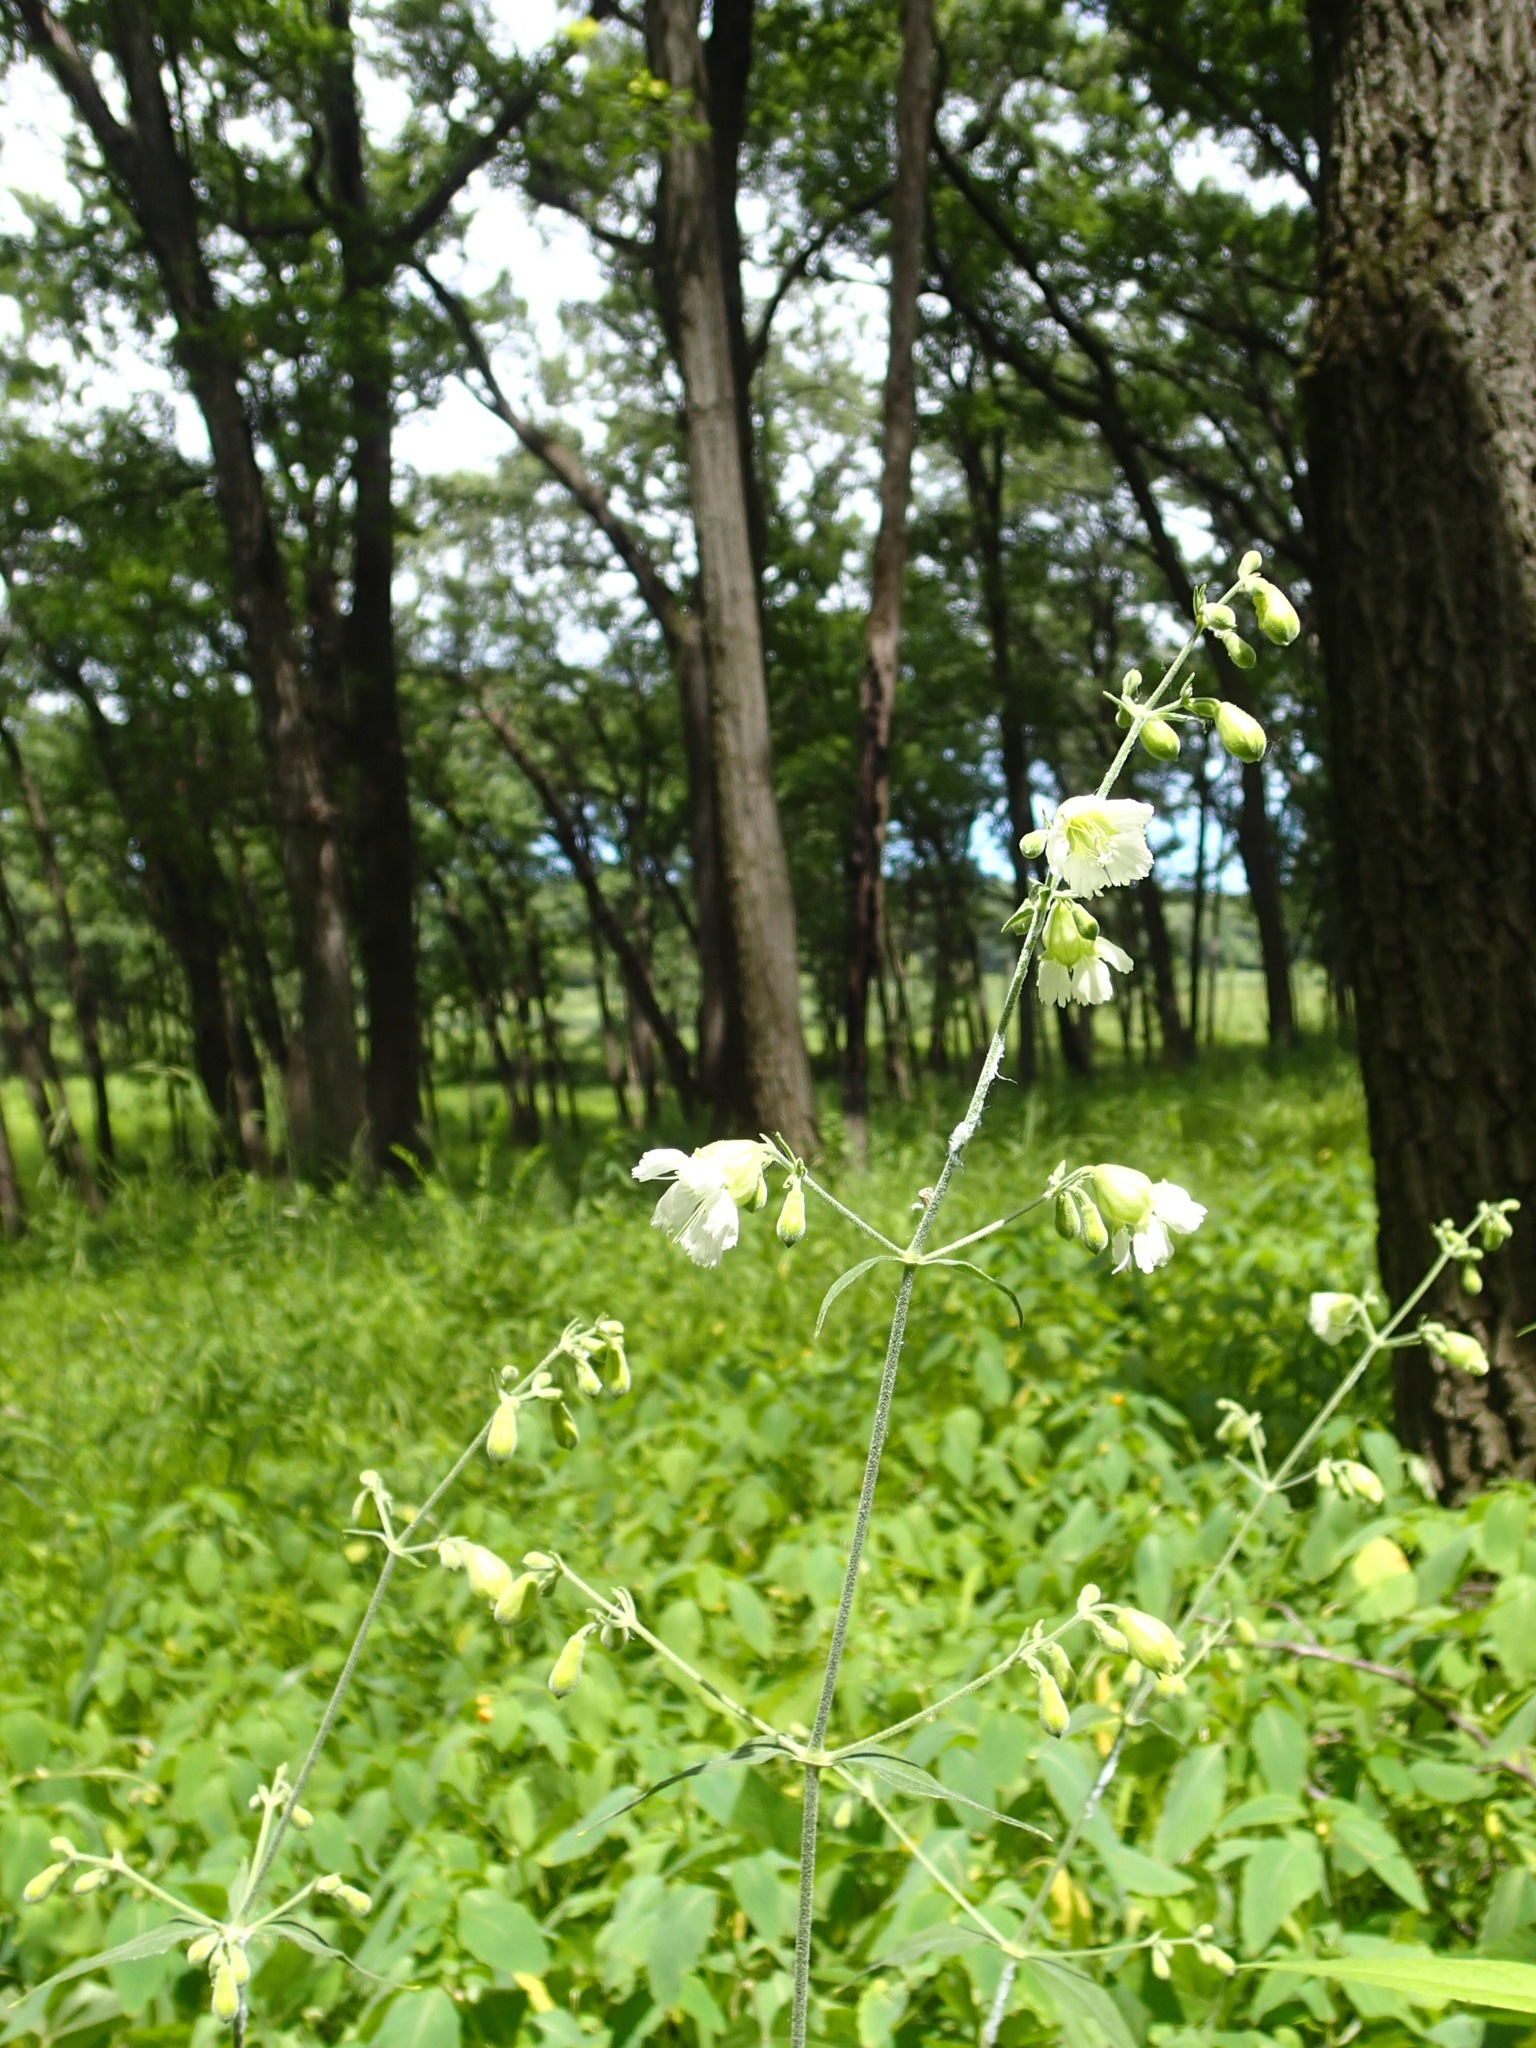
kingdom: Plantae
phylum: Tracheophyta
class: Magnoliopsida
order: Caryophyllales
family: Caryophyllaceae
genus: Silene
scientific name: Silene stellata
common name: Starry campion
